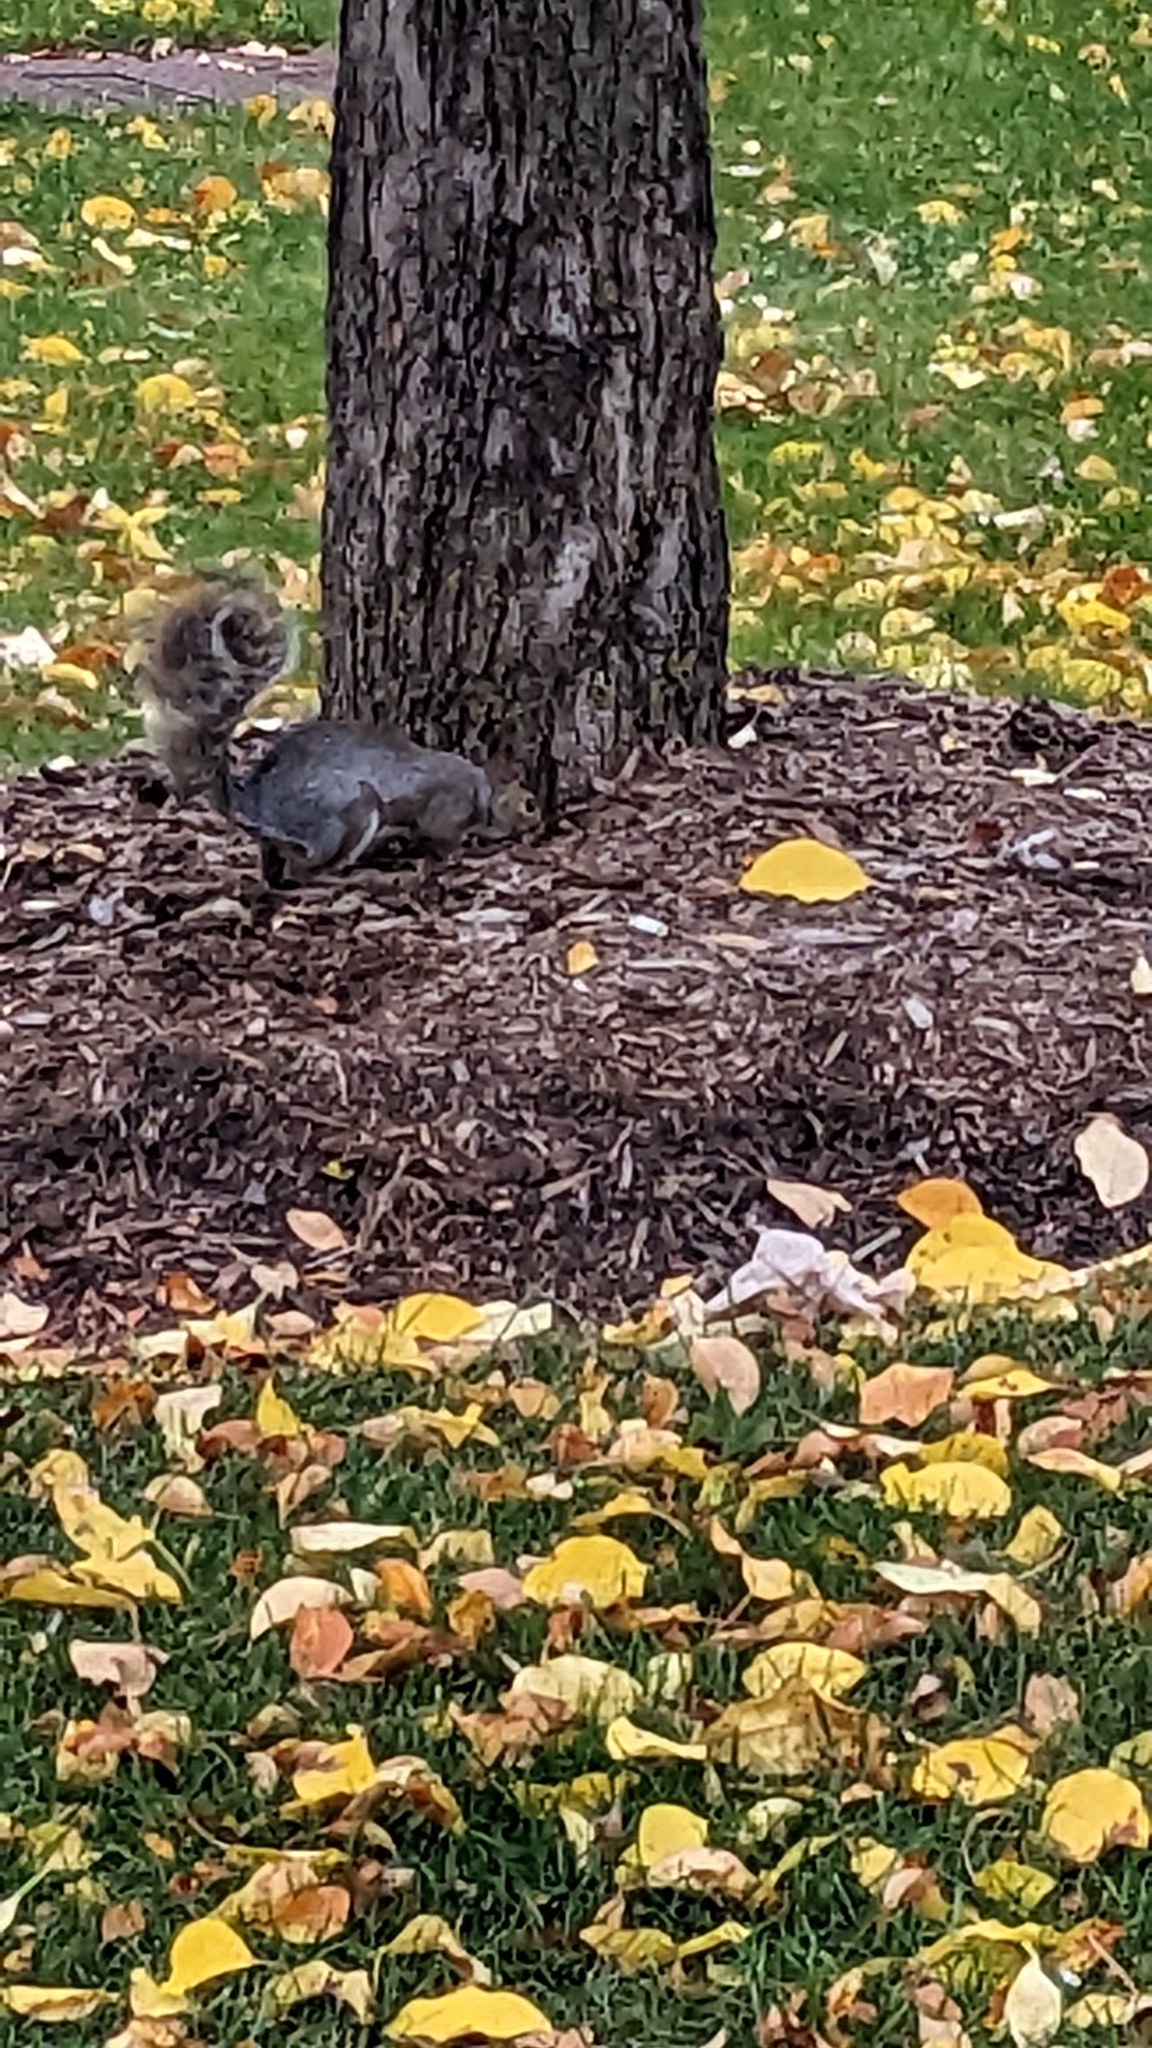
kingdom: Animalia
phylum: Chordata
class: Mammalia
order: Rodentia
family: Sciuridae
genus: Sciurus
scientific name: Sciurus carolinensis
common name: Eastern gray squirrel
